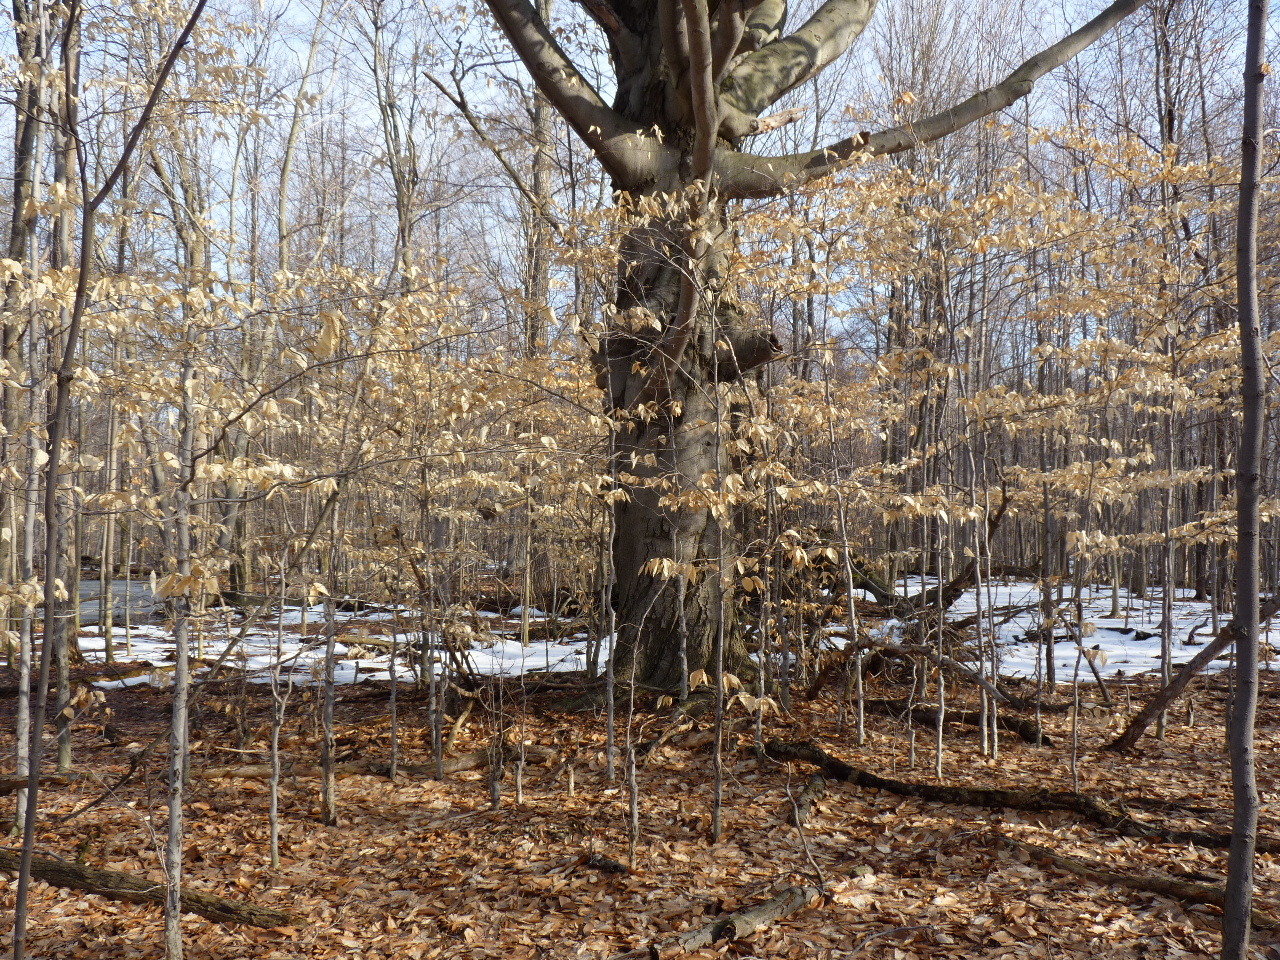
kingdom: Plantae
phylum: Tracheophyta
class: Magnoliopsida
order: Fagales
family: Fagaceae
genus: Fagus
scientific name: Fagus grandifolia
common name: American beech
